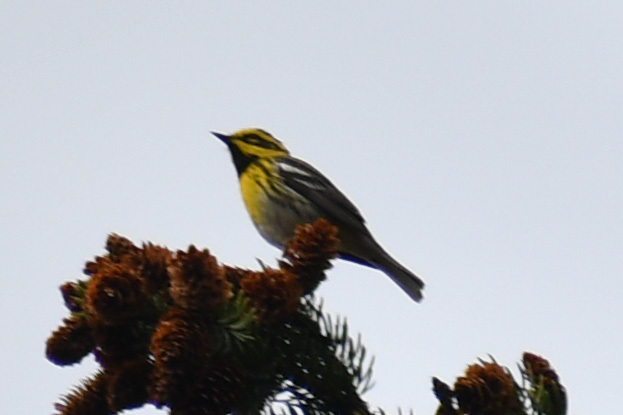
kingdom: Animalia
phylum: Chordata
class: Aves
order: Passeriformes
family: Parulidae
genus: Setophaga
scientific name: Setophaga townsendi
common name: Townsend's warbler
